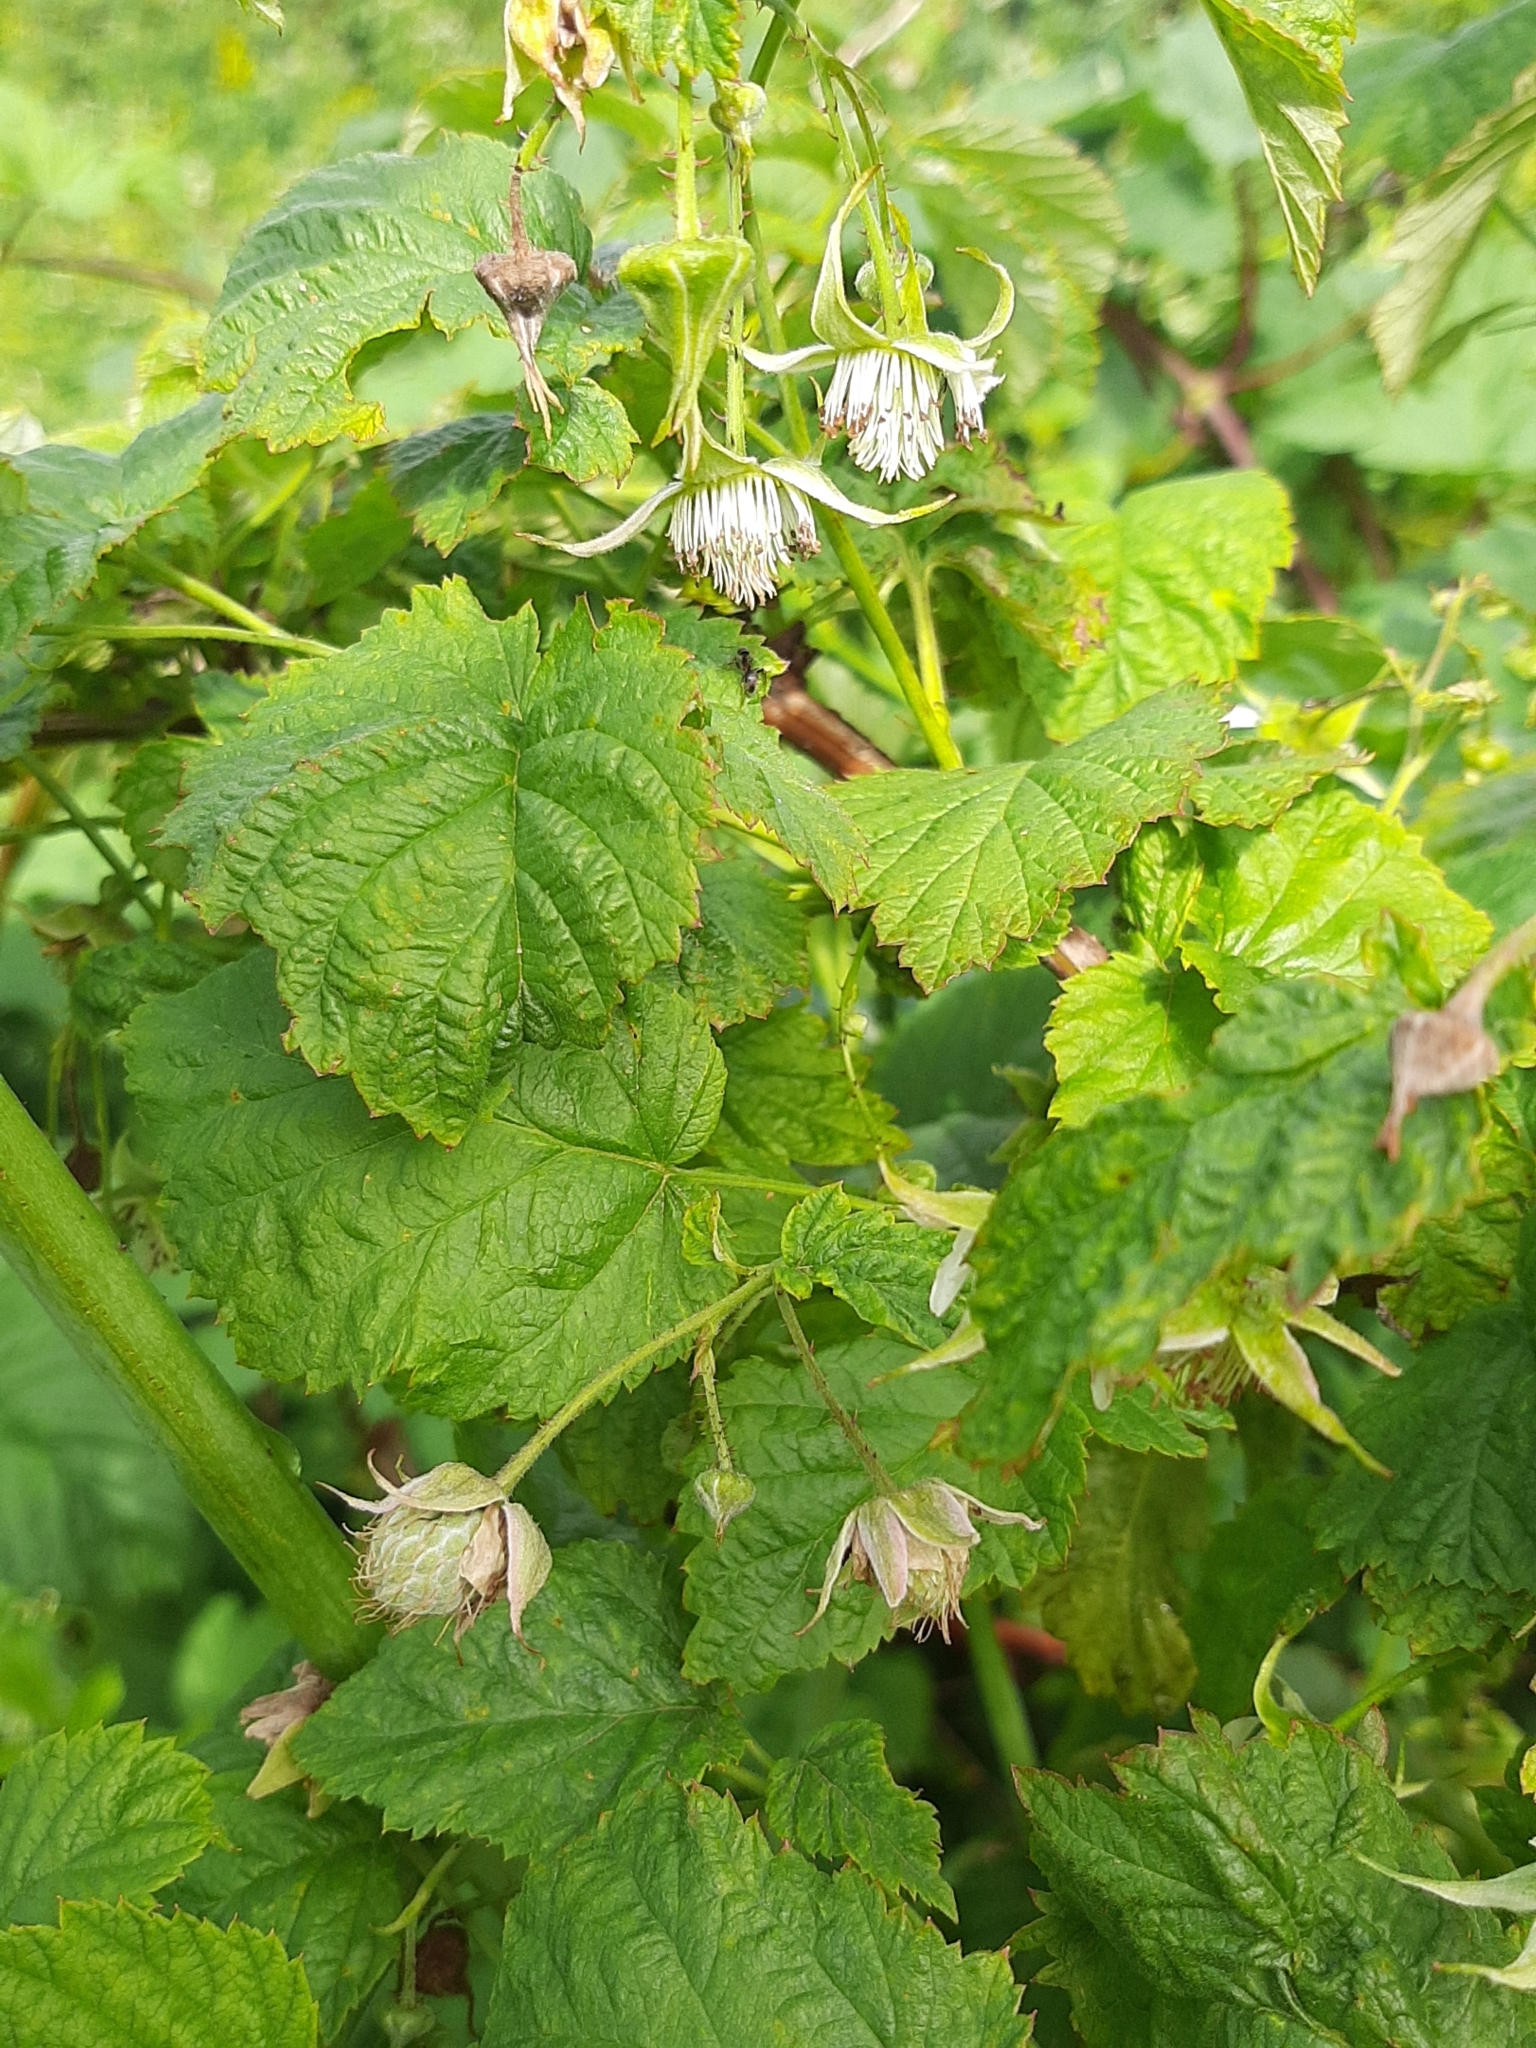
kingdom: Plantae
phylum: Tracheophyta
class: Magnoliopsida
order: Rosales
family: Rosaceae
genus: Rubus
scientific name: Rubus idaeus
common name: Raspberry
